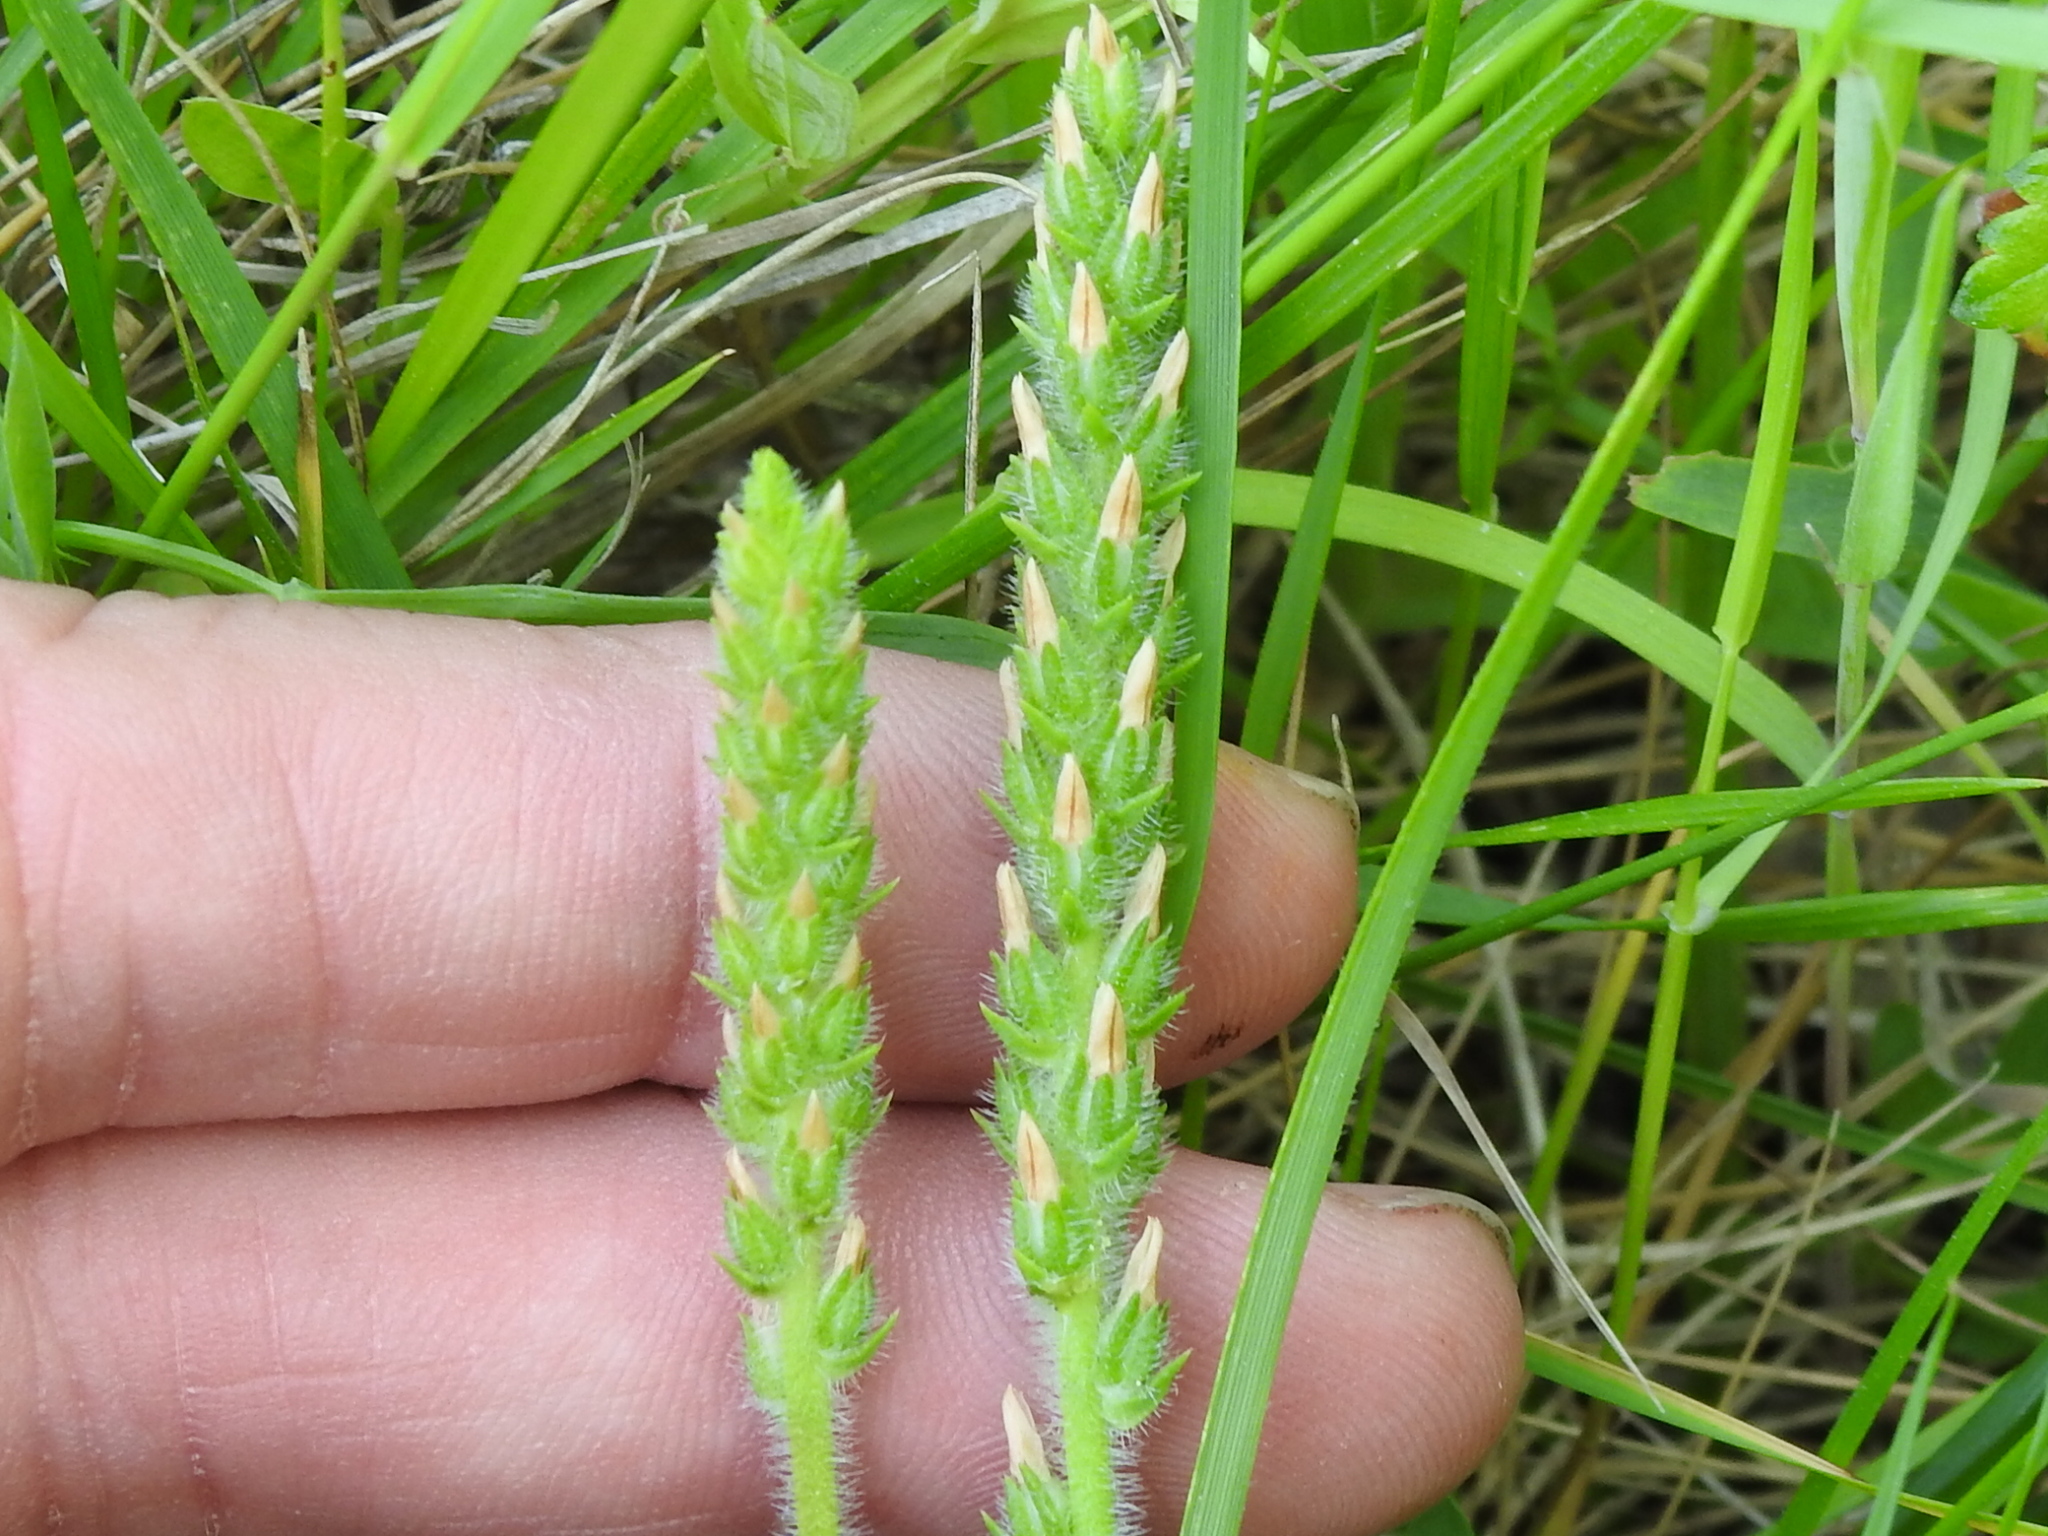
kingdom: Plantae
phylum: Tracheophyta
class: Magnoliopsida
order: Lamiales
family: Plantaginaceae
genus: Plantago
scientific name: Plantago rhodosperma
